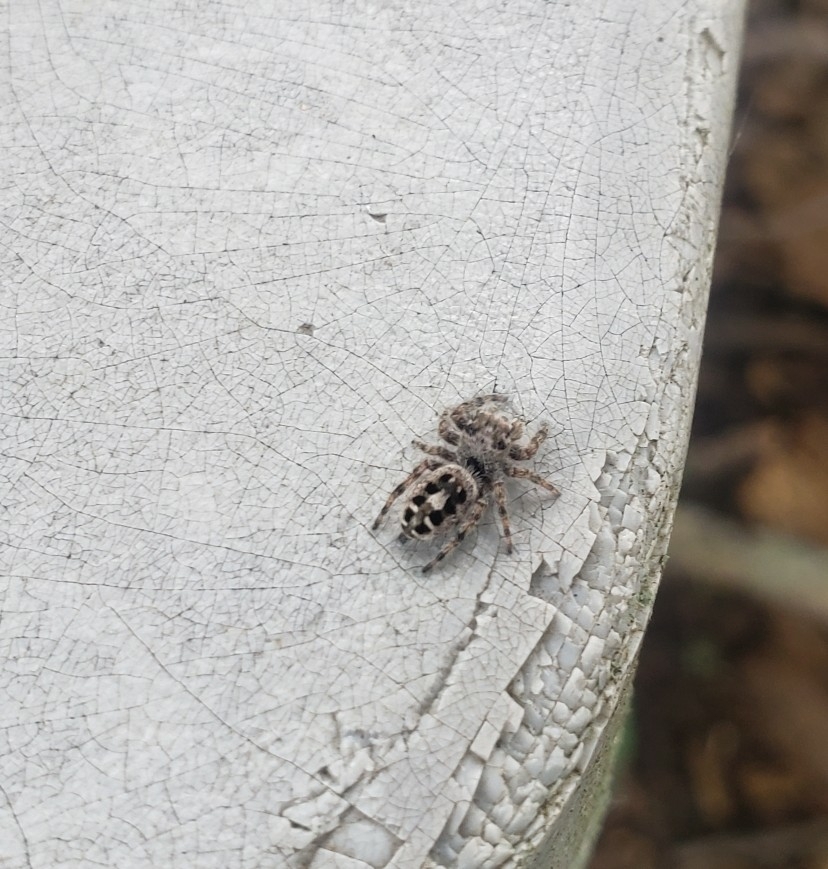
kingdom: Animalia
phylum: Arthropoda
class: Arachnida
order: Araneae
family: Salticidae
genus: Phidippus
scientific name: Phidippus putnami
